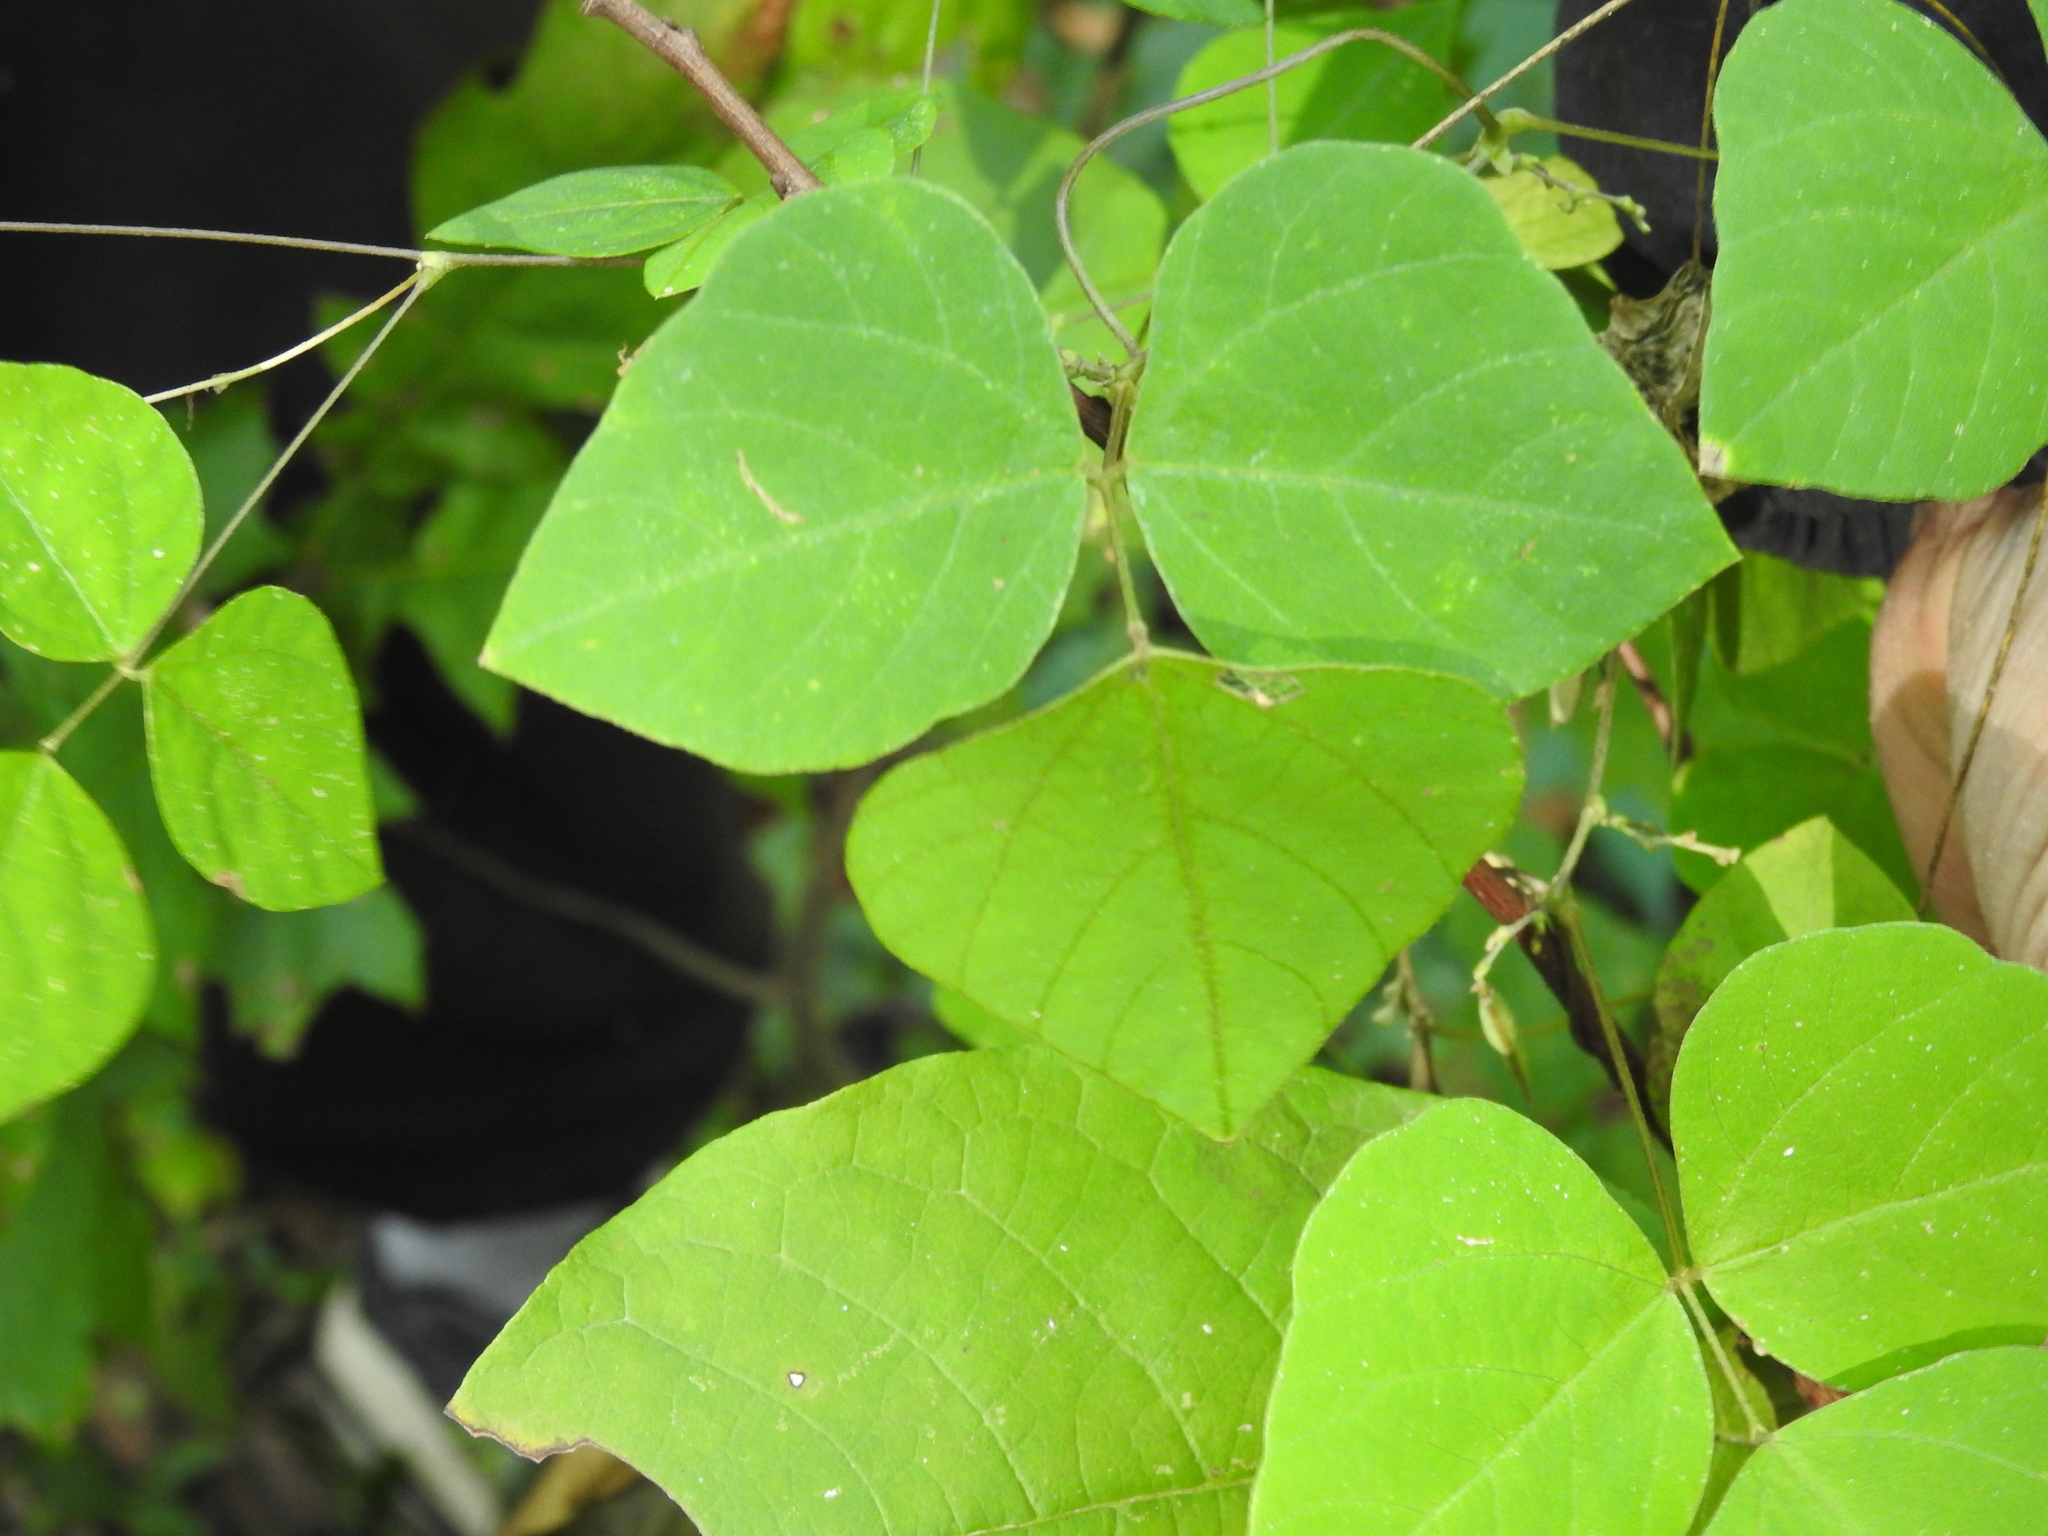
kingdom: Plantae
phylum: Tracheophyta
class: Magnoliopsida
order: Fabales
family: Fabaceae
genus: Amphicarpaea
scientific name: Amphicarpaea bracteata
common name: American hog peanut
